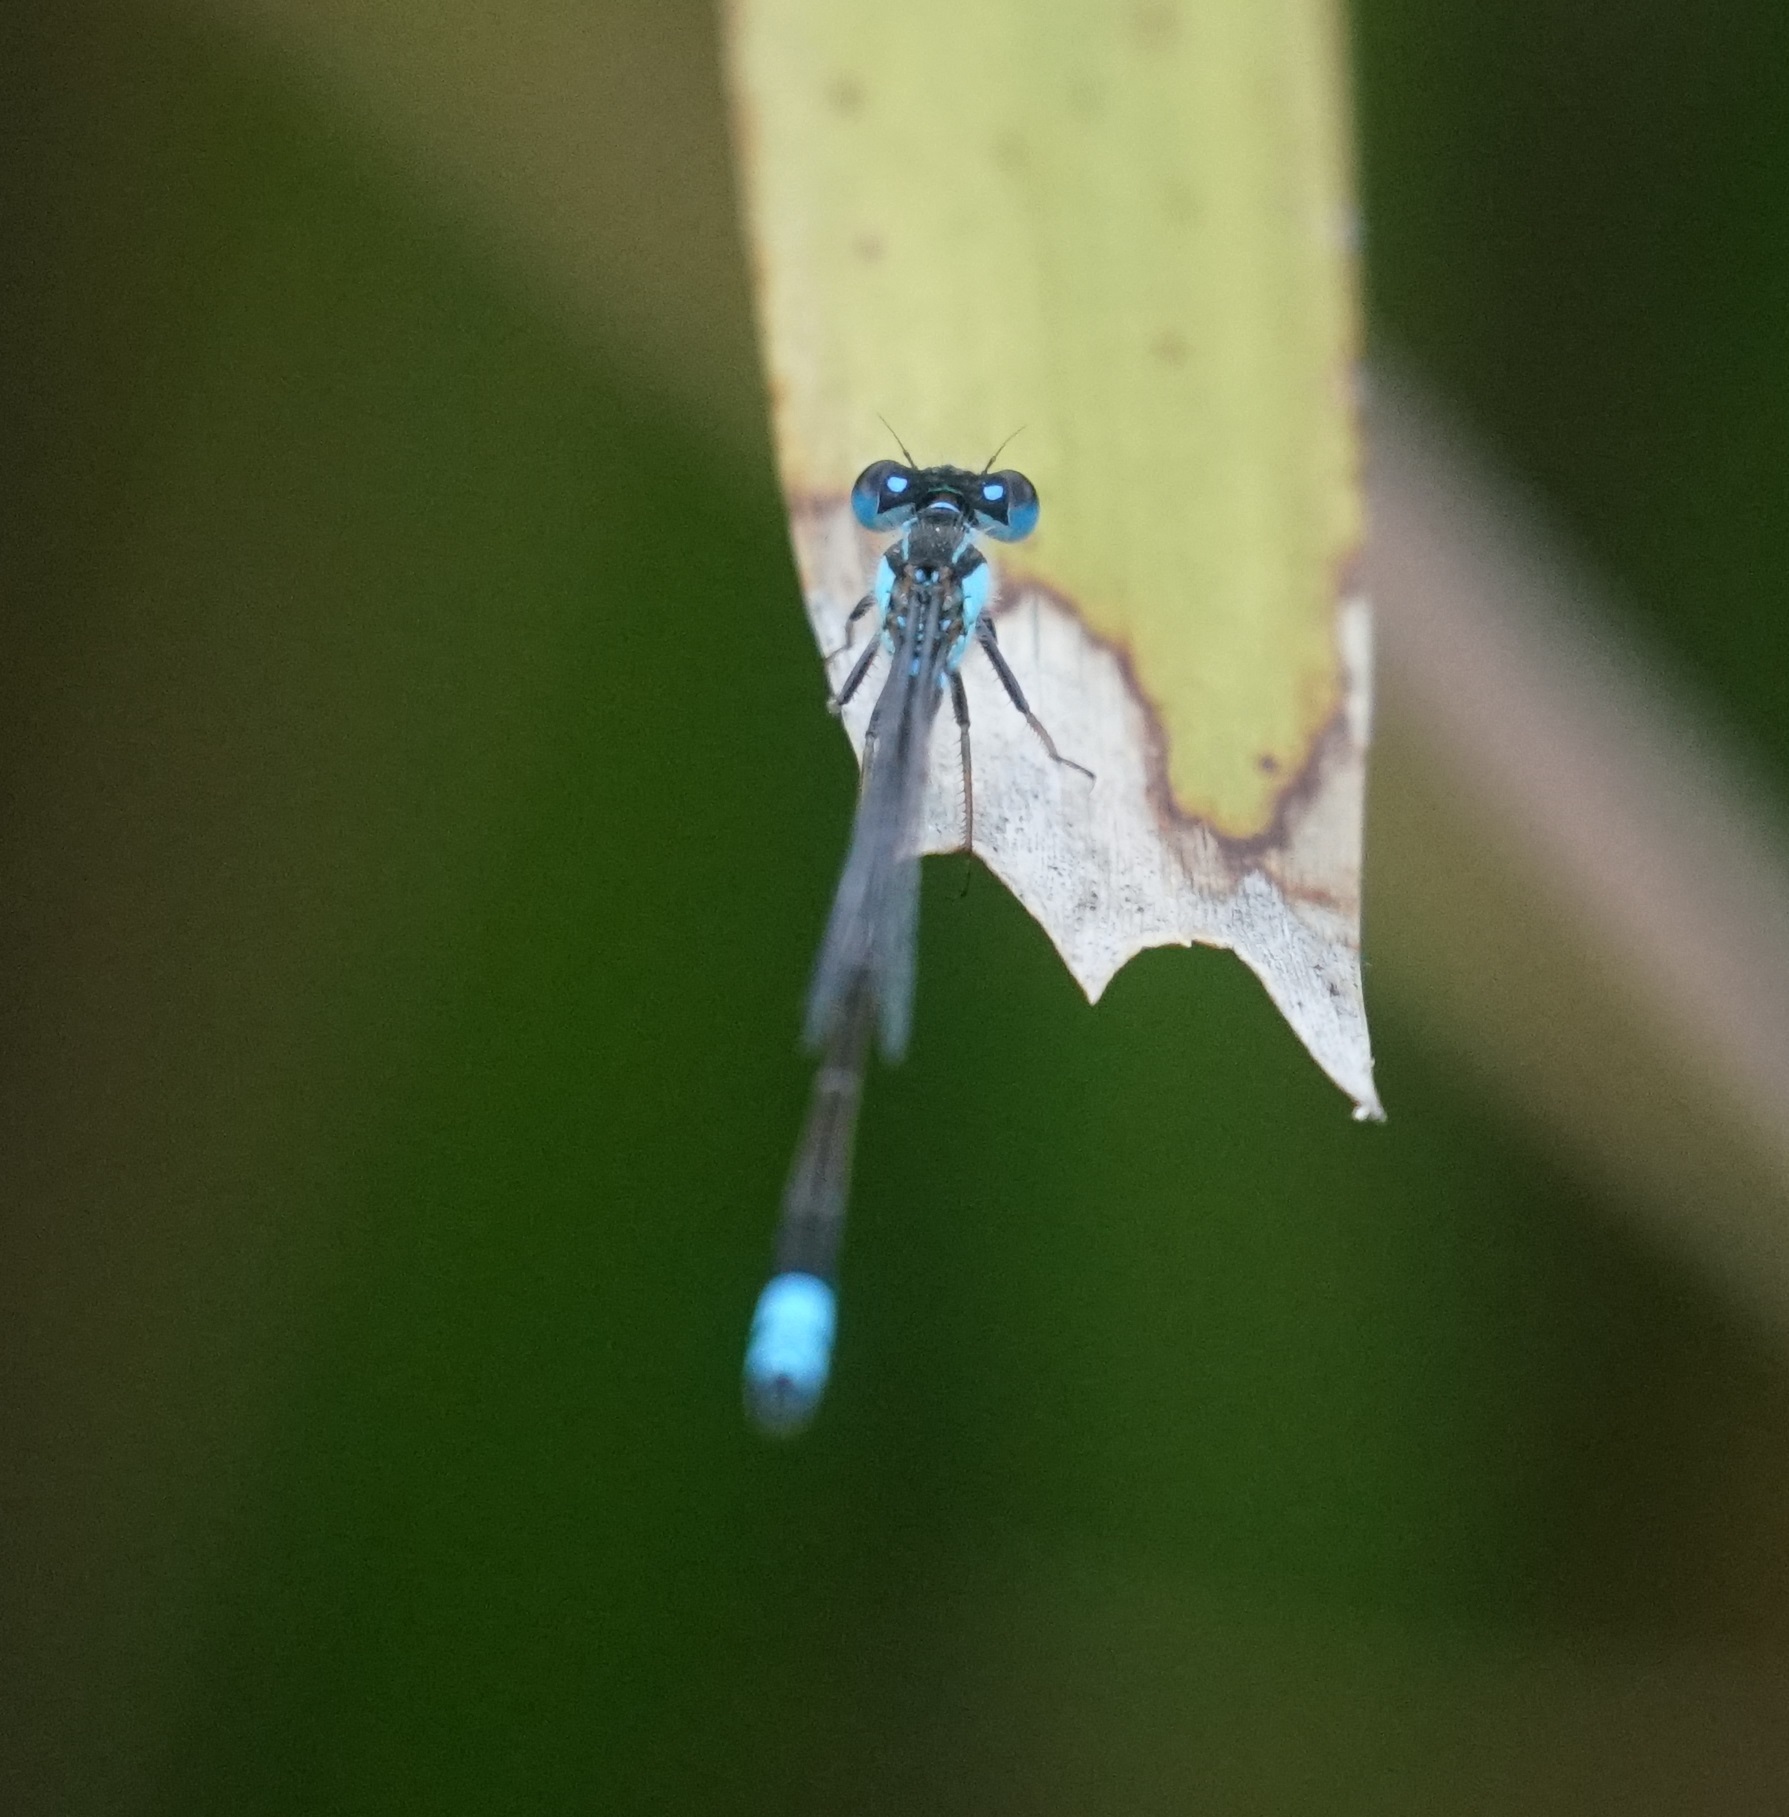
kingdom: Animalia
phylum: Arthropoda
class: Insecta
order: Odonata
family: Coenagrionidae
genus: Ischnura
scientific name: Ischnura heterosticta
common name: Common bluetail
